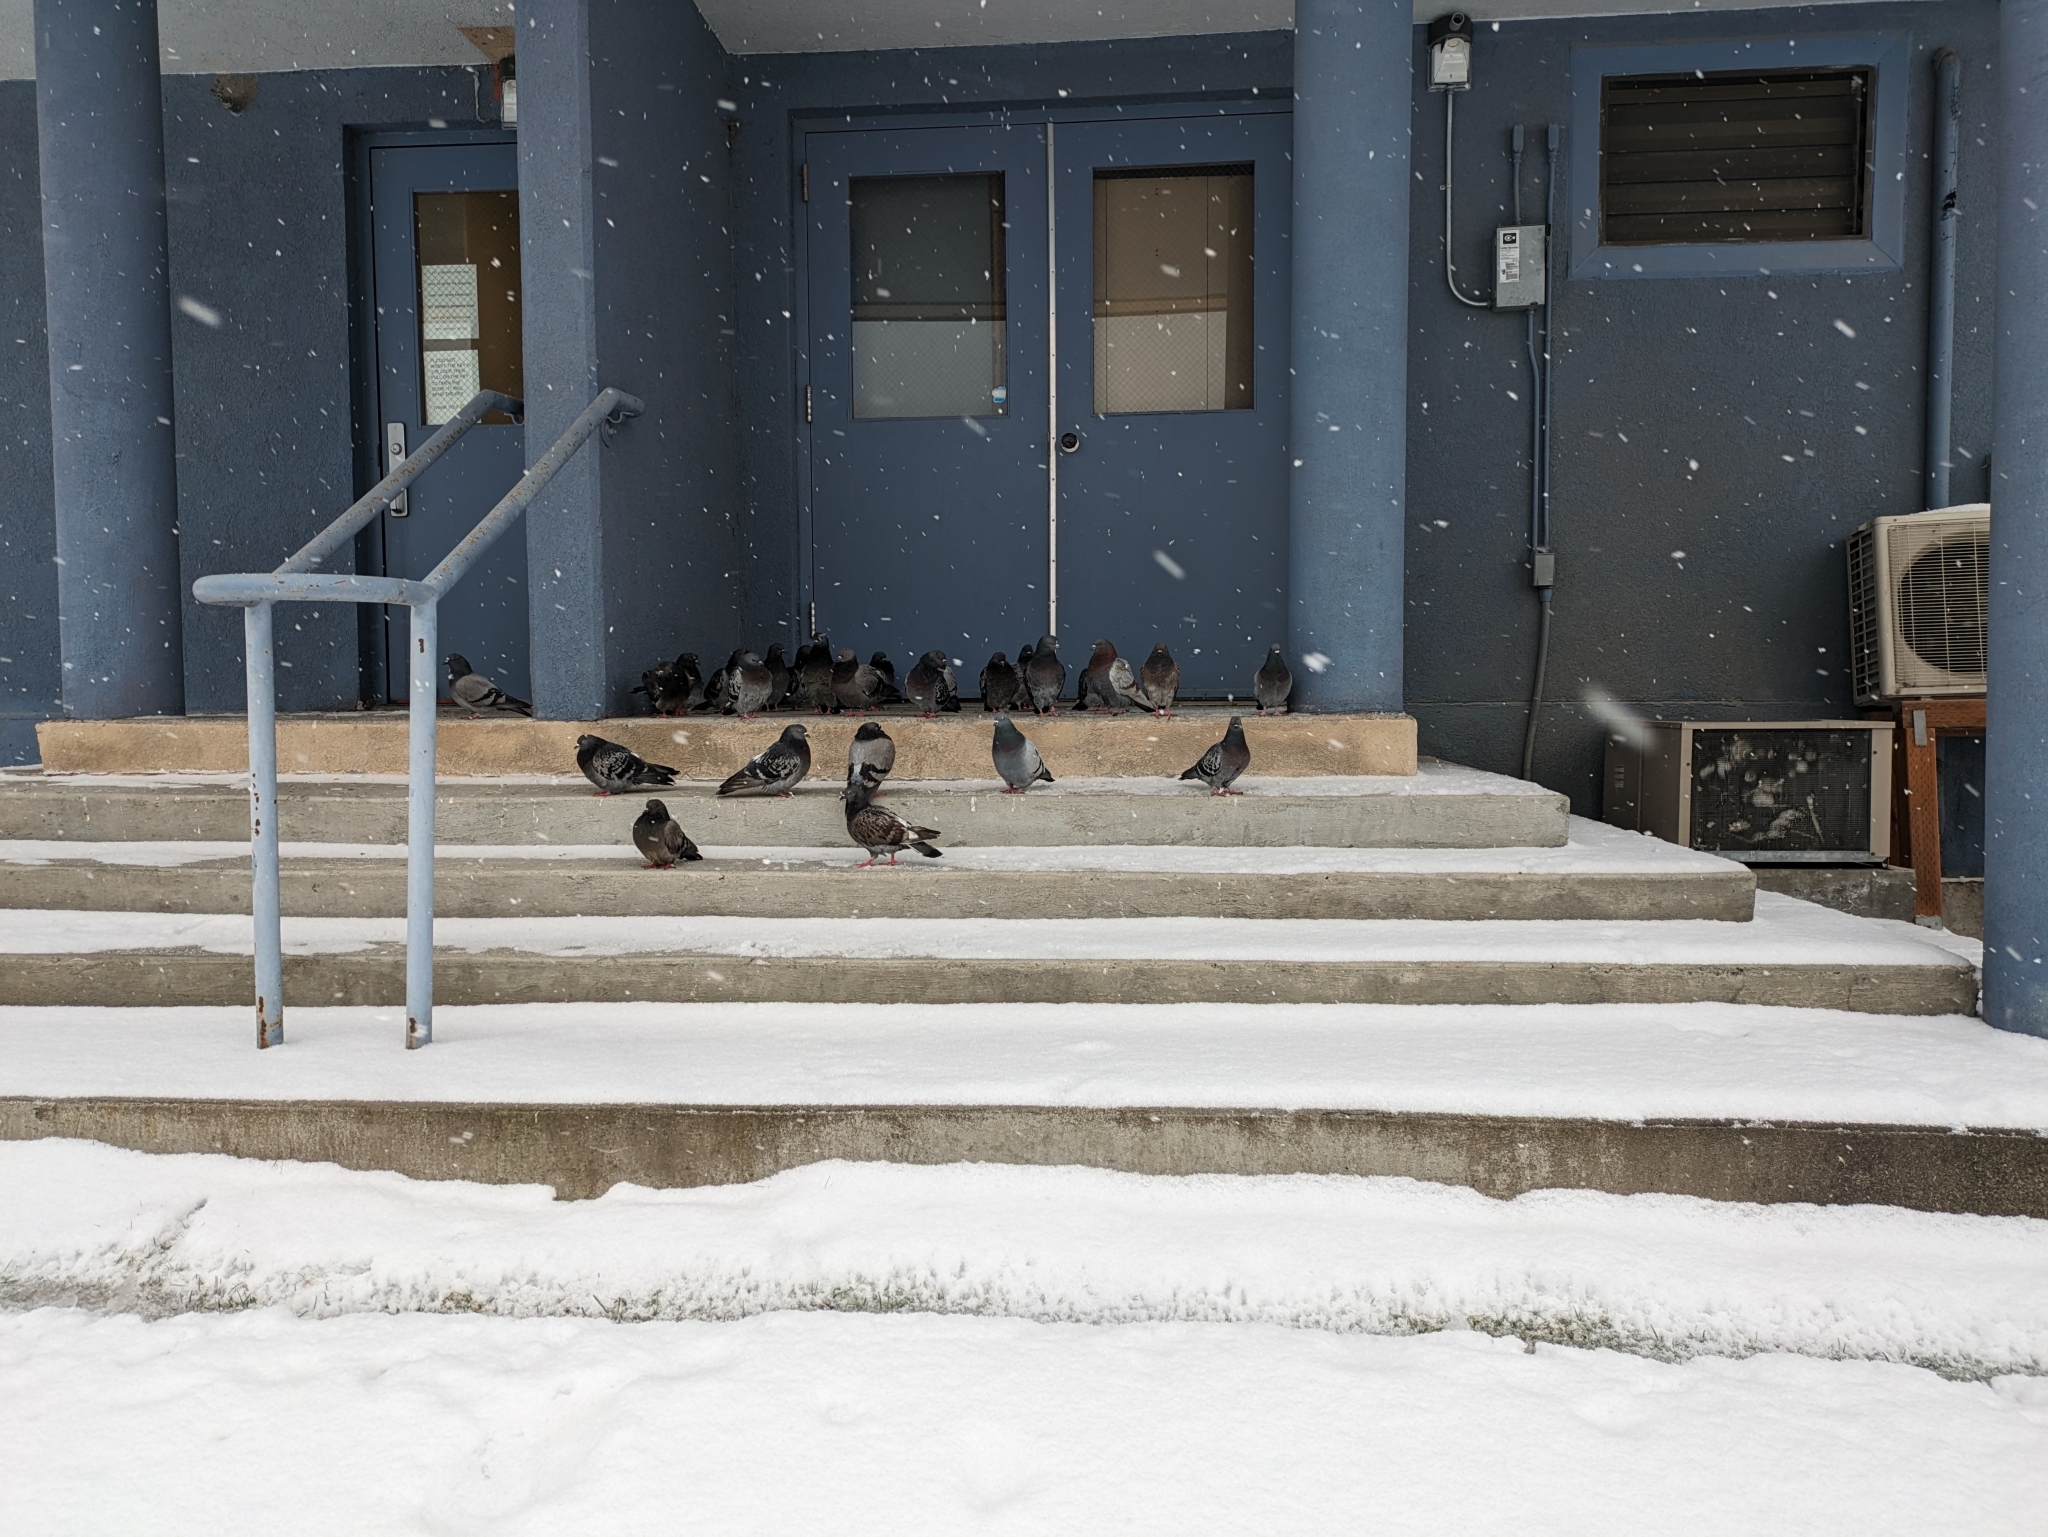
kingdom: Animalia
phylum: Chordata
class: Aves
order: Columbiformes
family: Columbidae
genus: Columba
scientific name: Columba livia
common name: Rock pigeon
